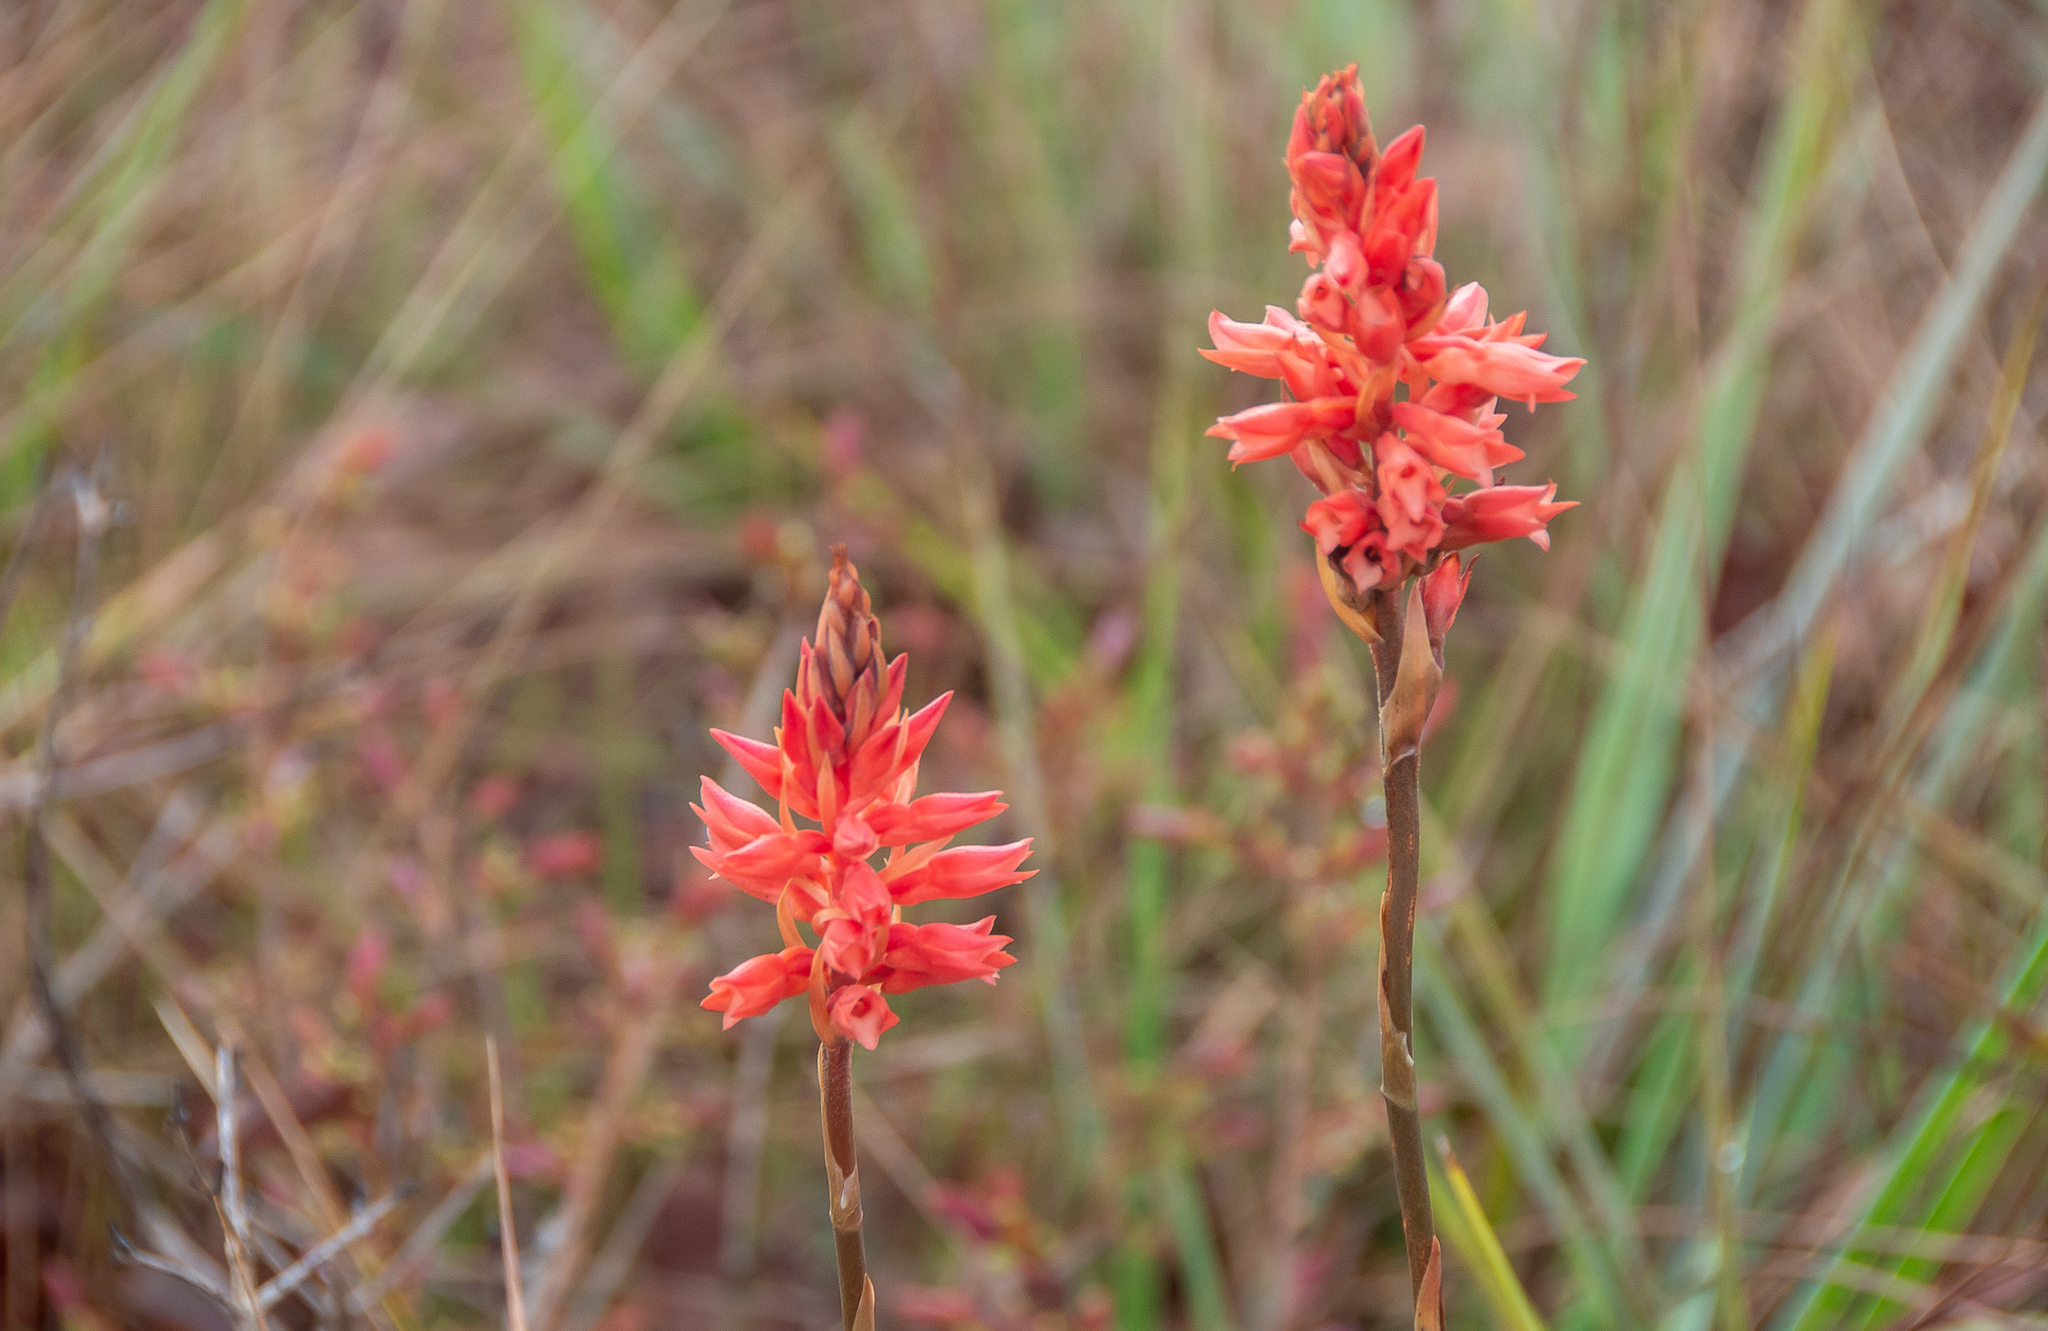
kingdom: Plantae
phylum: Tracheophyta
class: Liliopsida
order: Asparagales
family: Orchidaceae
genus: Sacoila
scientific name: Sacoila lanceolata
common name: Leafless beaked ladiestresses
